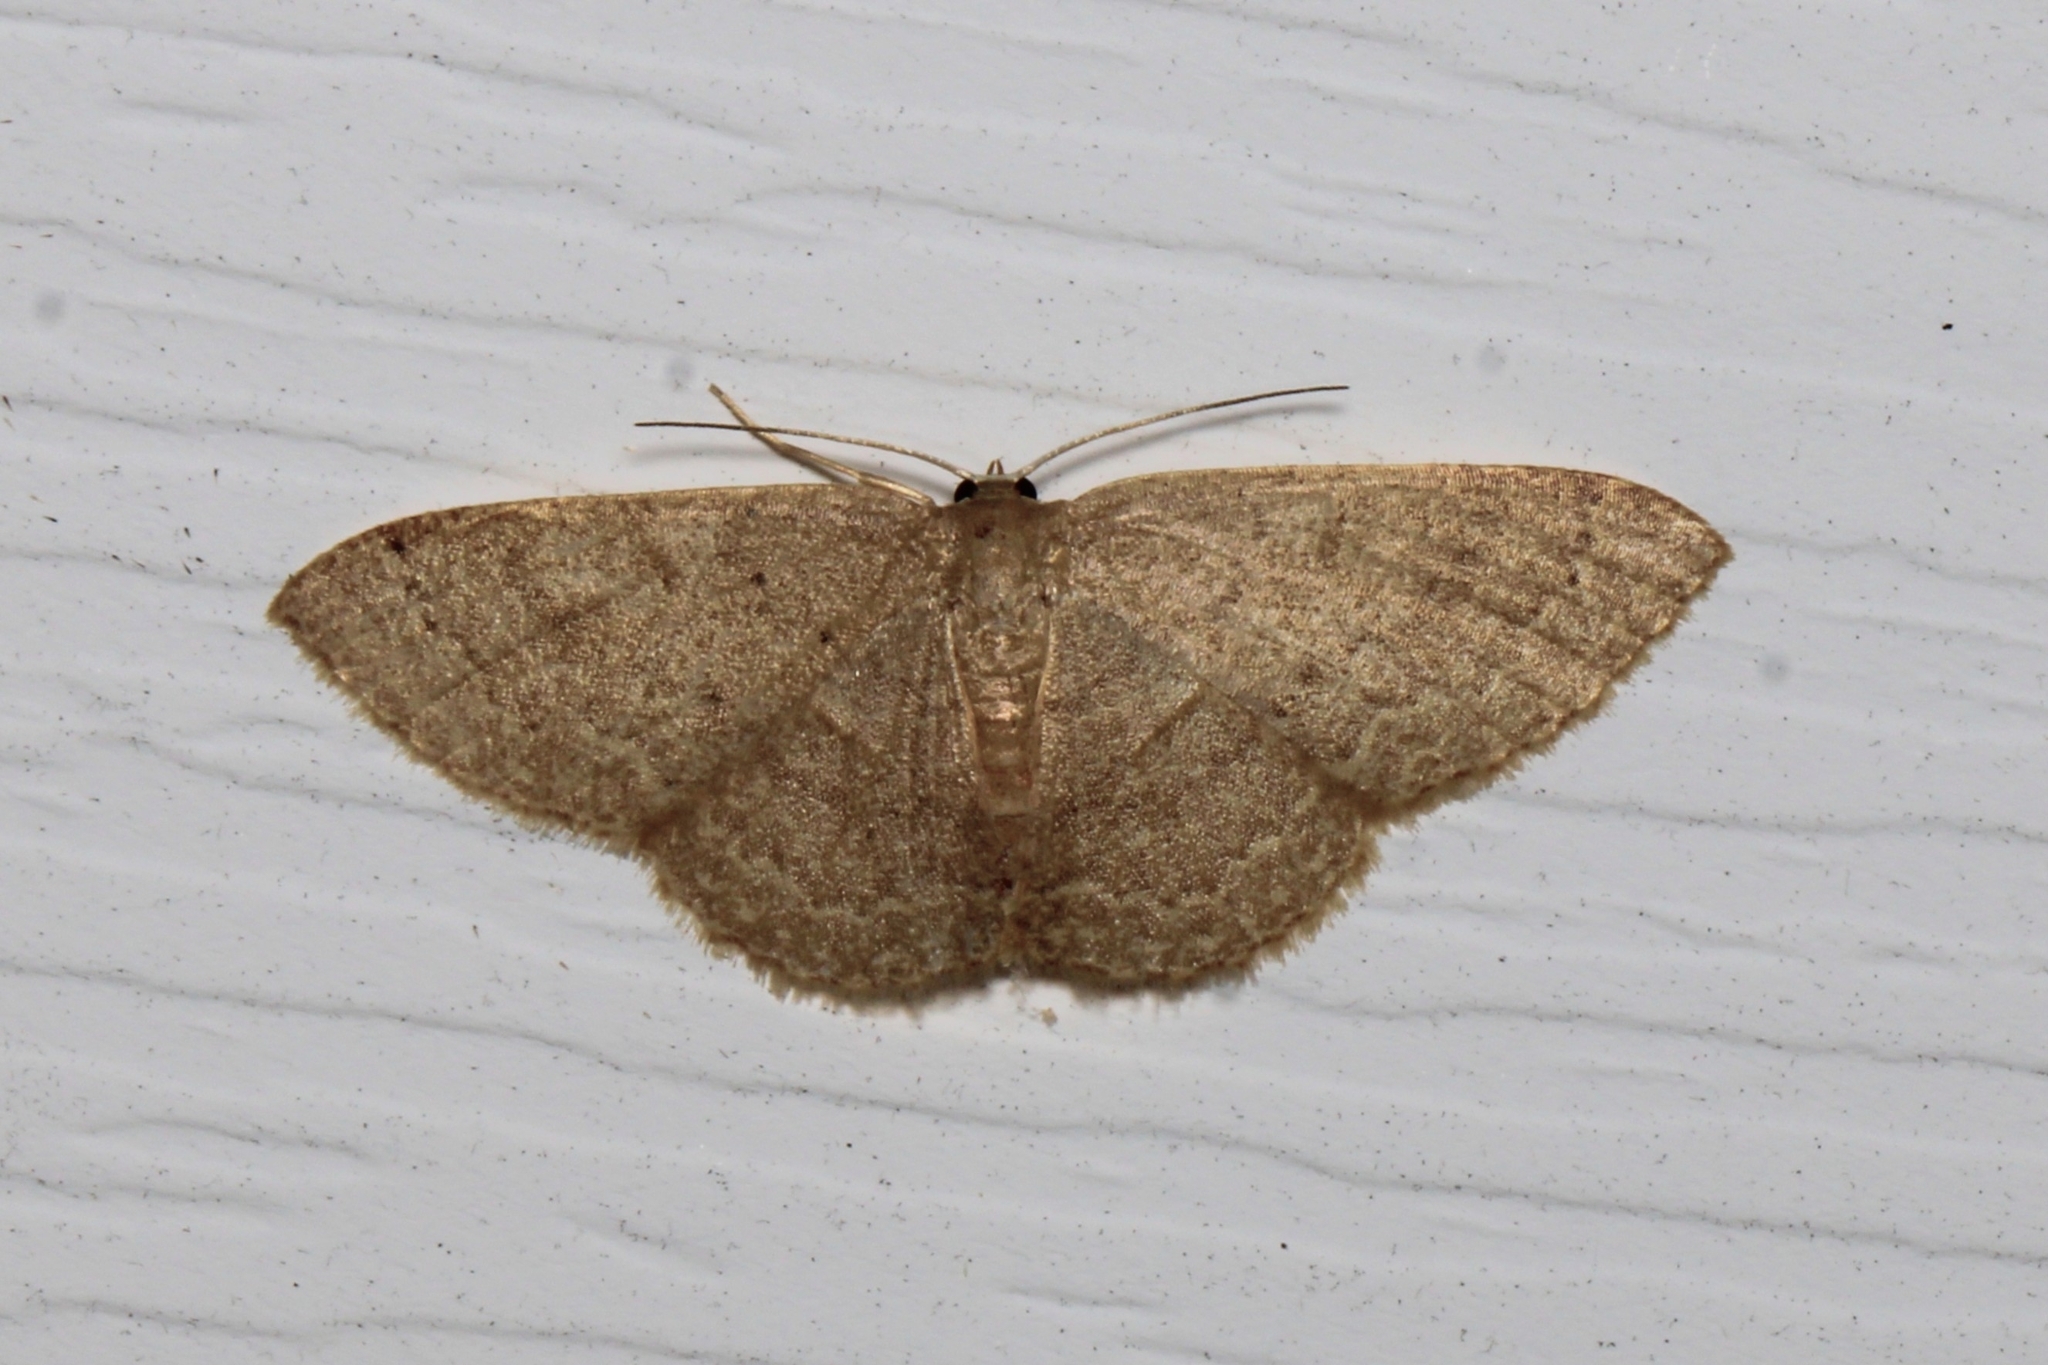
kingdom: Animalia
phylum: Arthropoda
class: Insecta
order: Lepidoptera
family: Geometridae
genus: Pleuroprucha
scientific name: Pleuroprucha insulsaria
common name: Common tan wave
